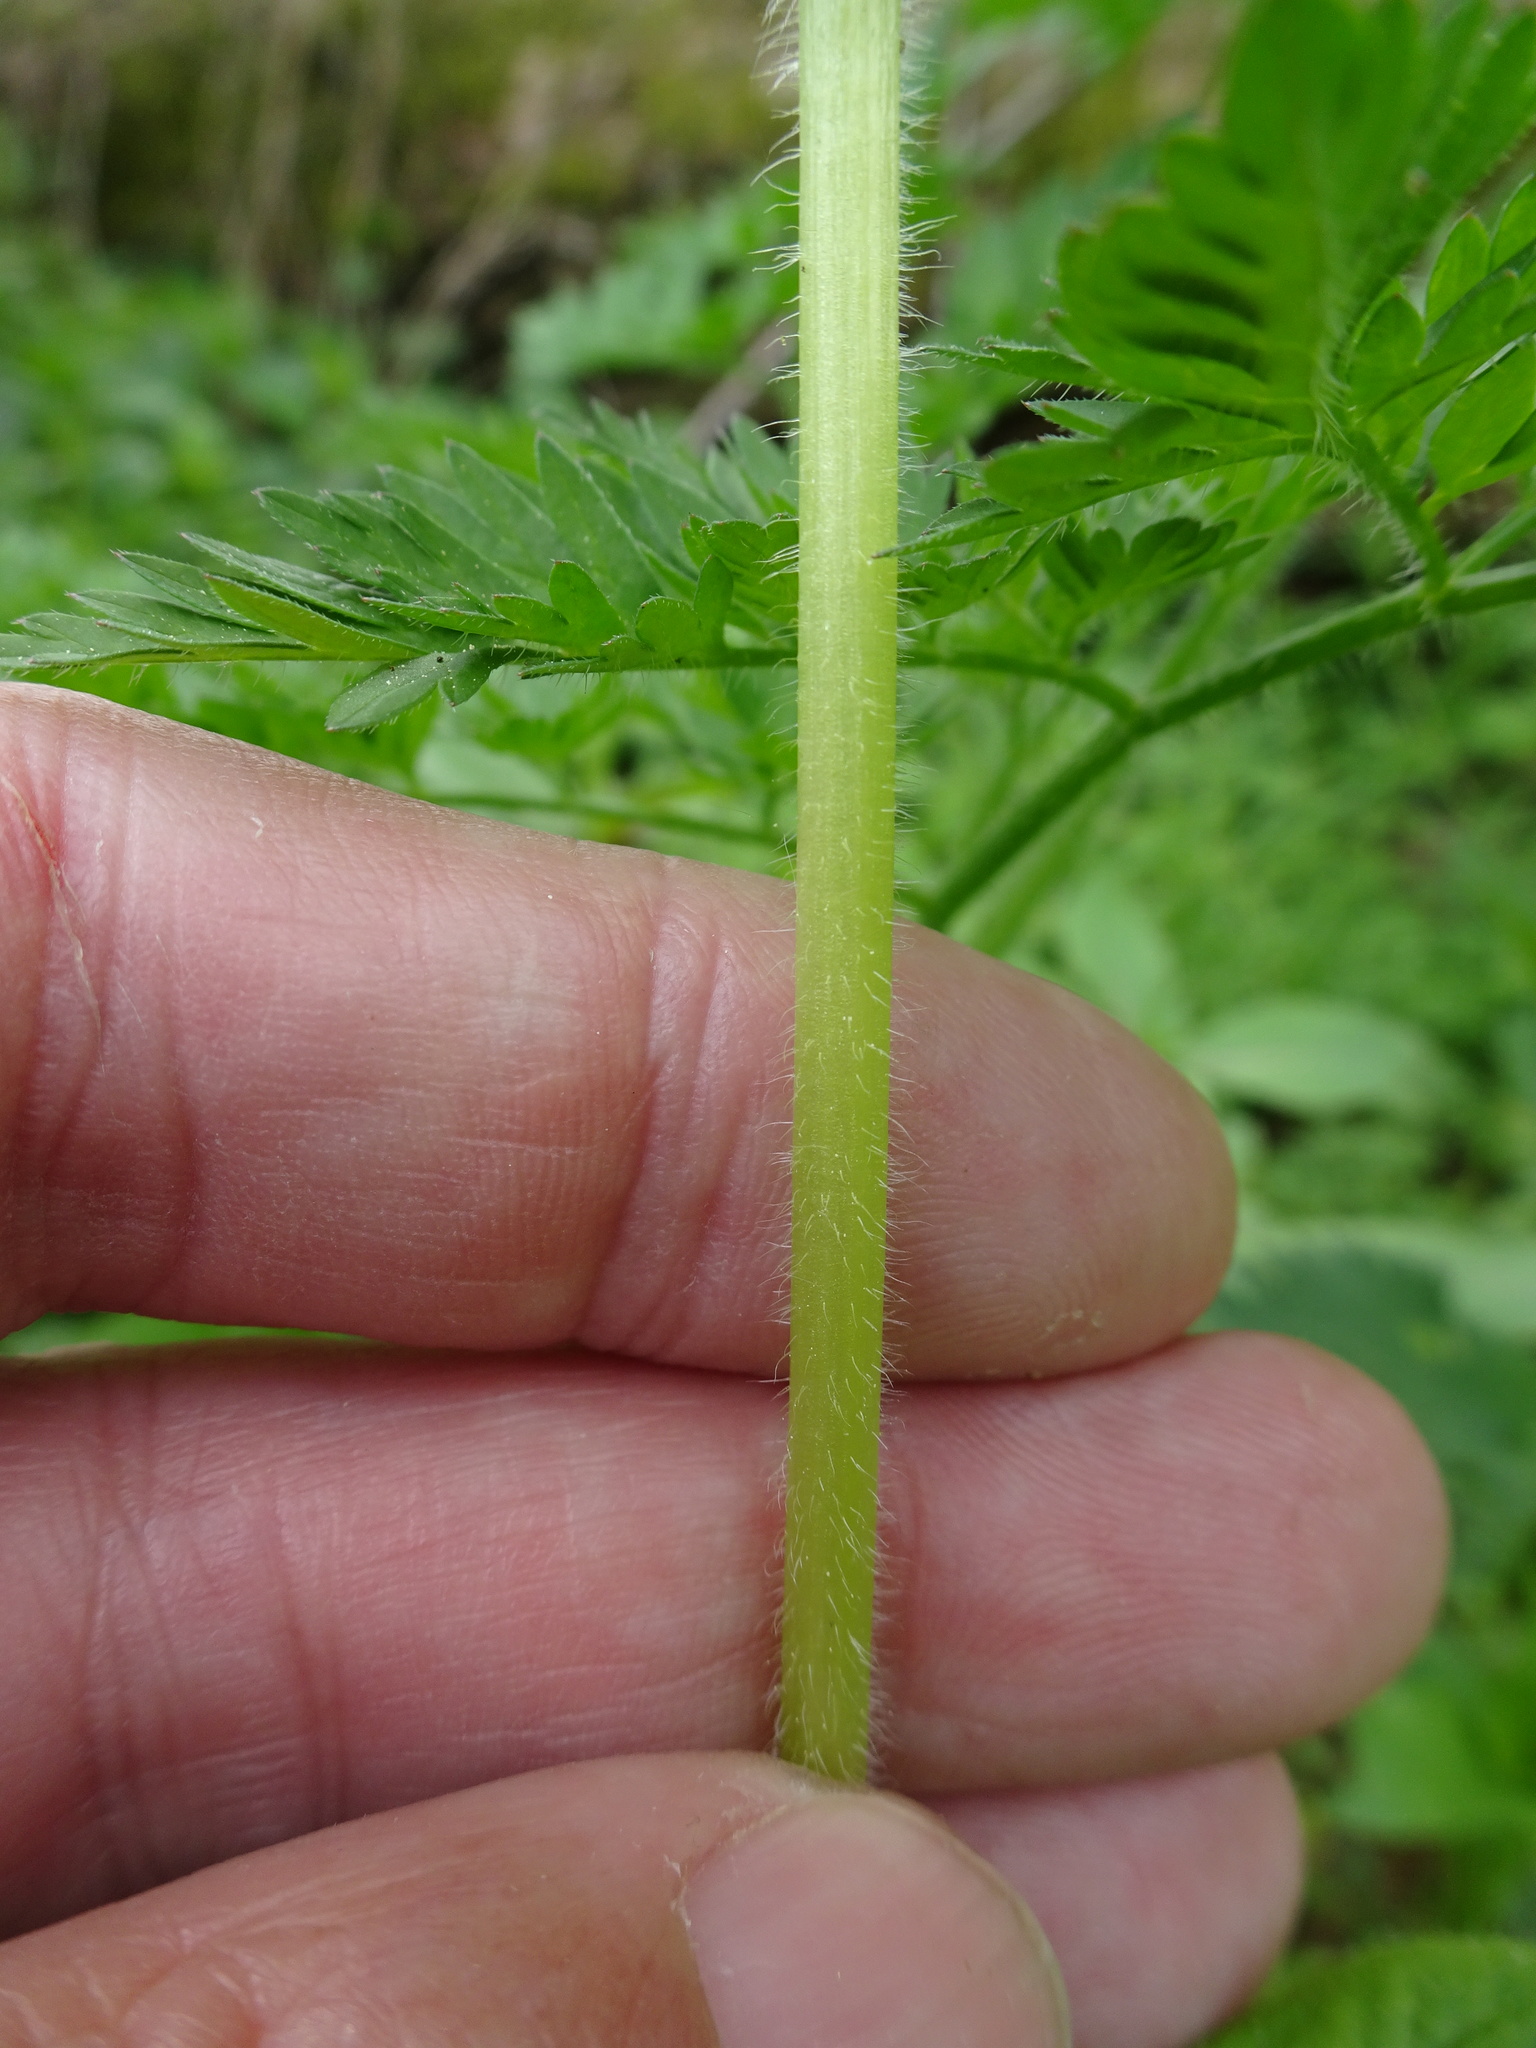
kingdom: Plantae
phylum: Tracheophyta
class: Magnoliopsida
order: Caryophyllales
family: Caryophyllaceae
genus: Stellaria
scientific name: Stellaria nemorum
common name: Wood stitchwort
